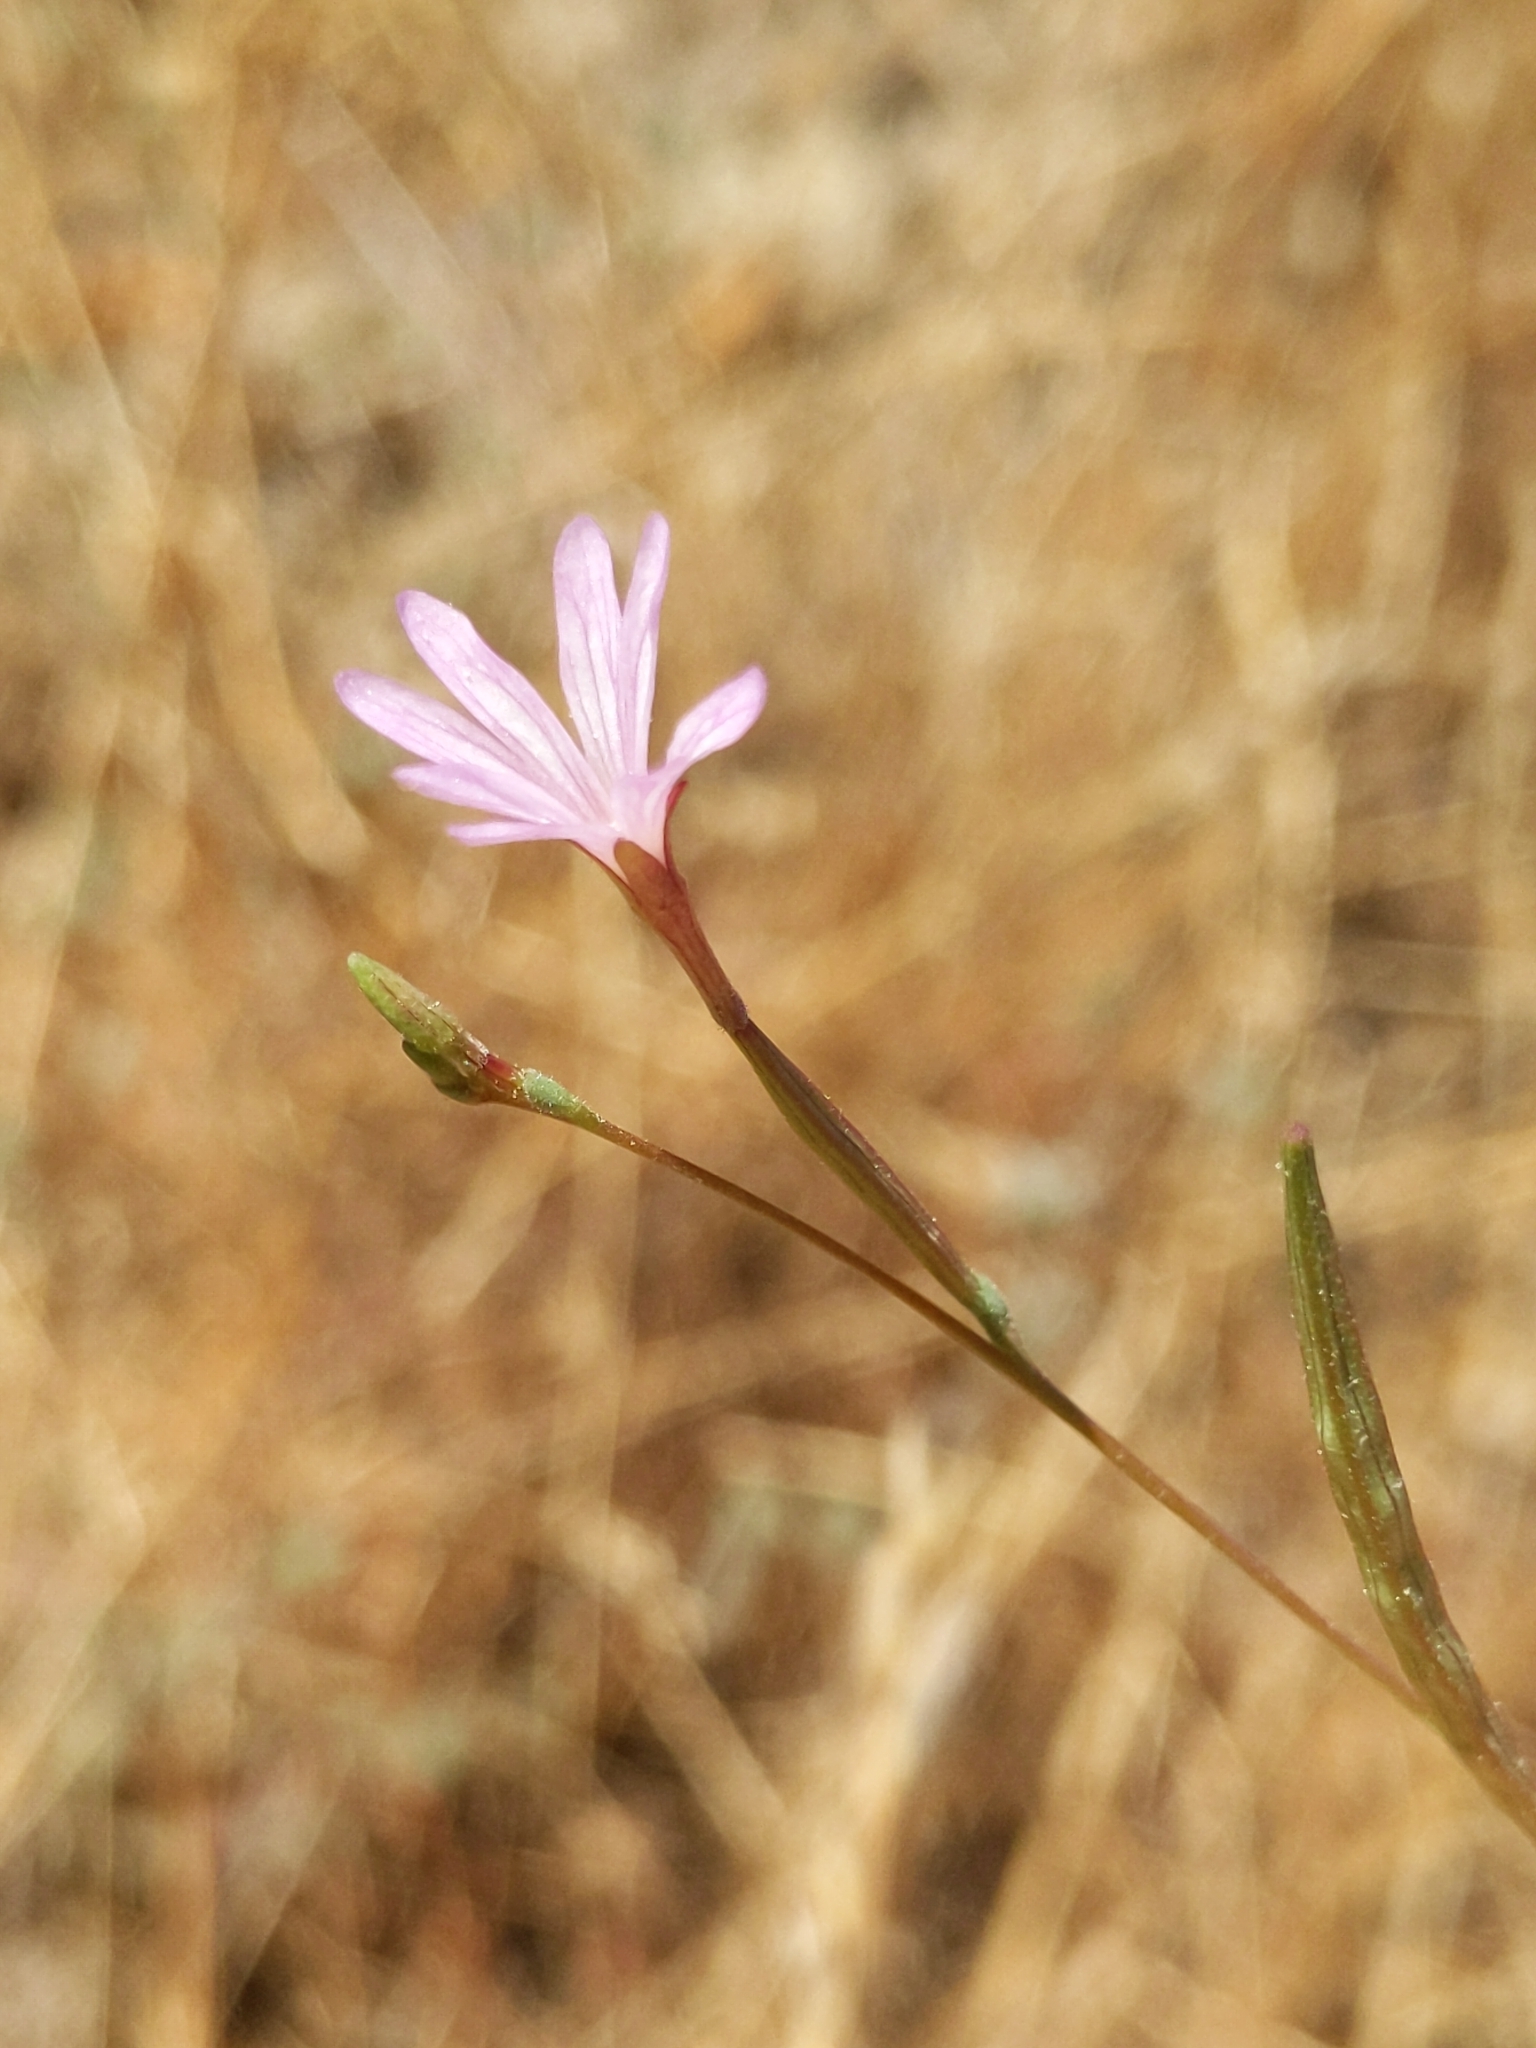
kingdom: Plantae
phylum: Tracheophyta
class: Magnoliopsida
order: Myrtales
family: Onagraceae
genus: Epilobium
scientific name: Epilobium brachycarpum
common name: Annual willowherb
